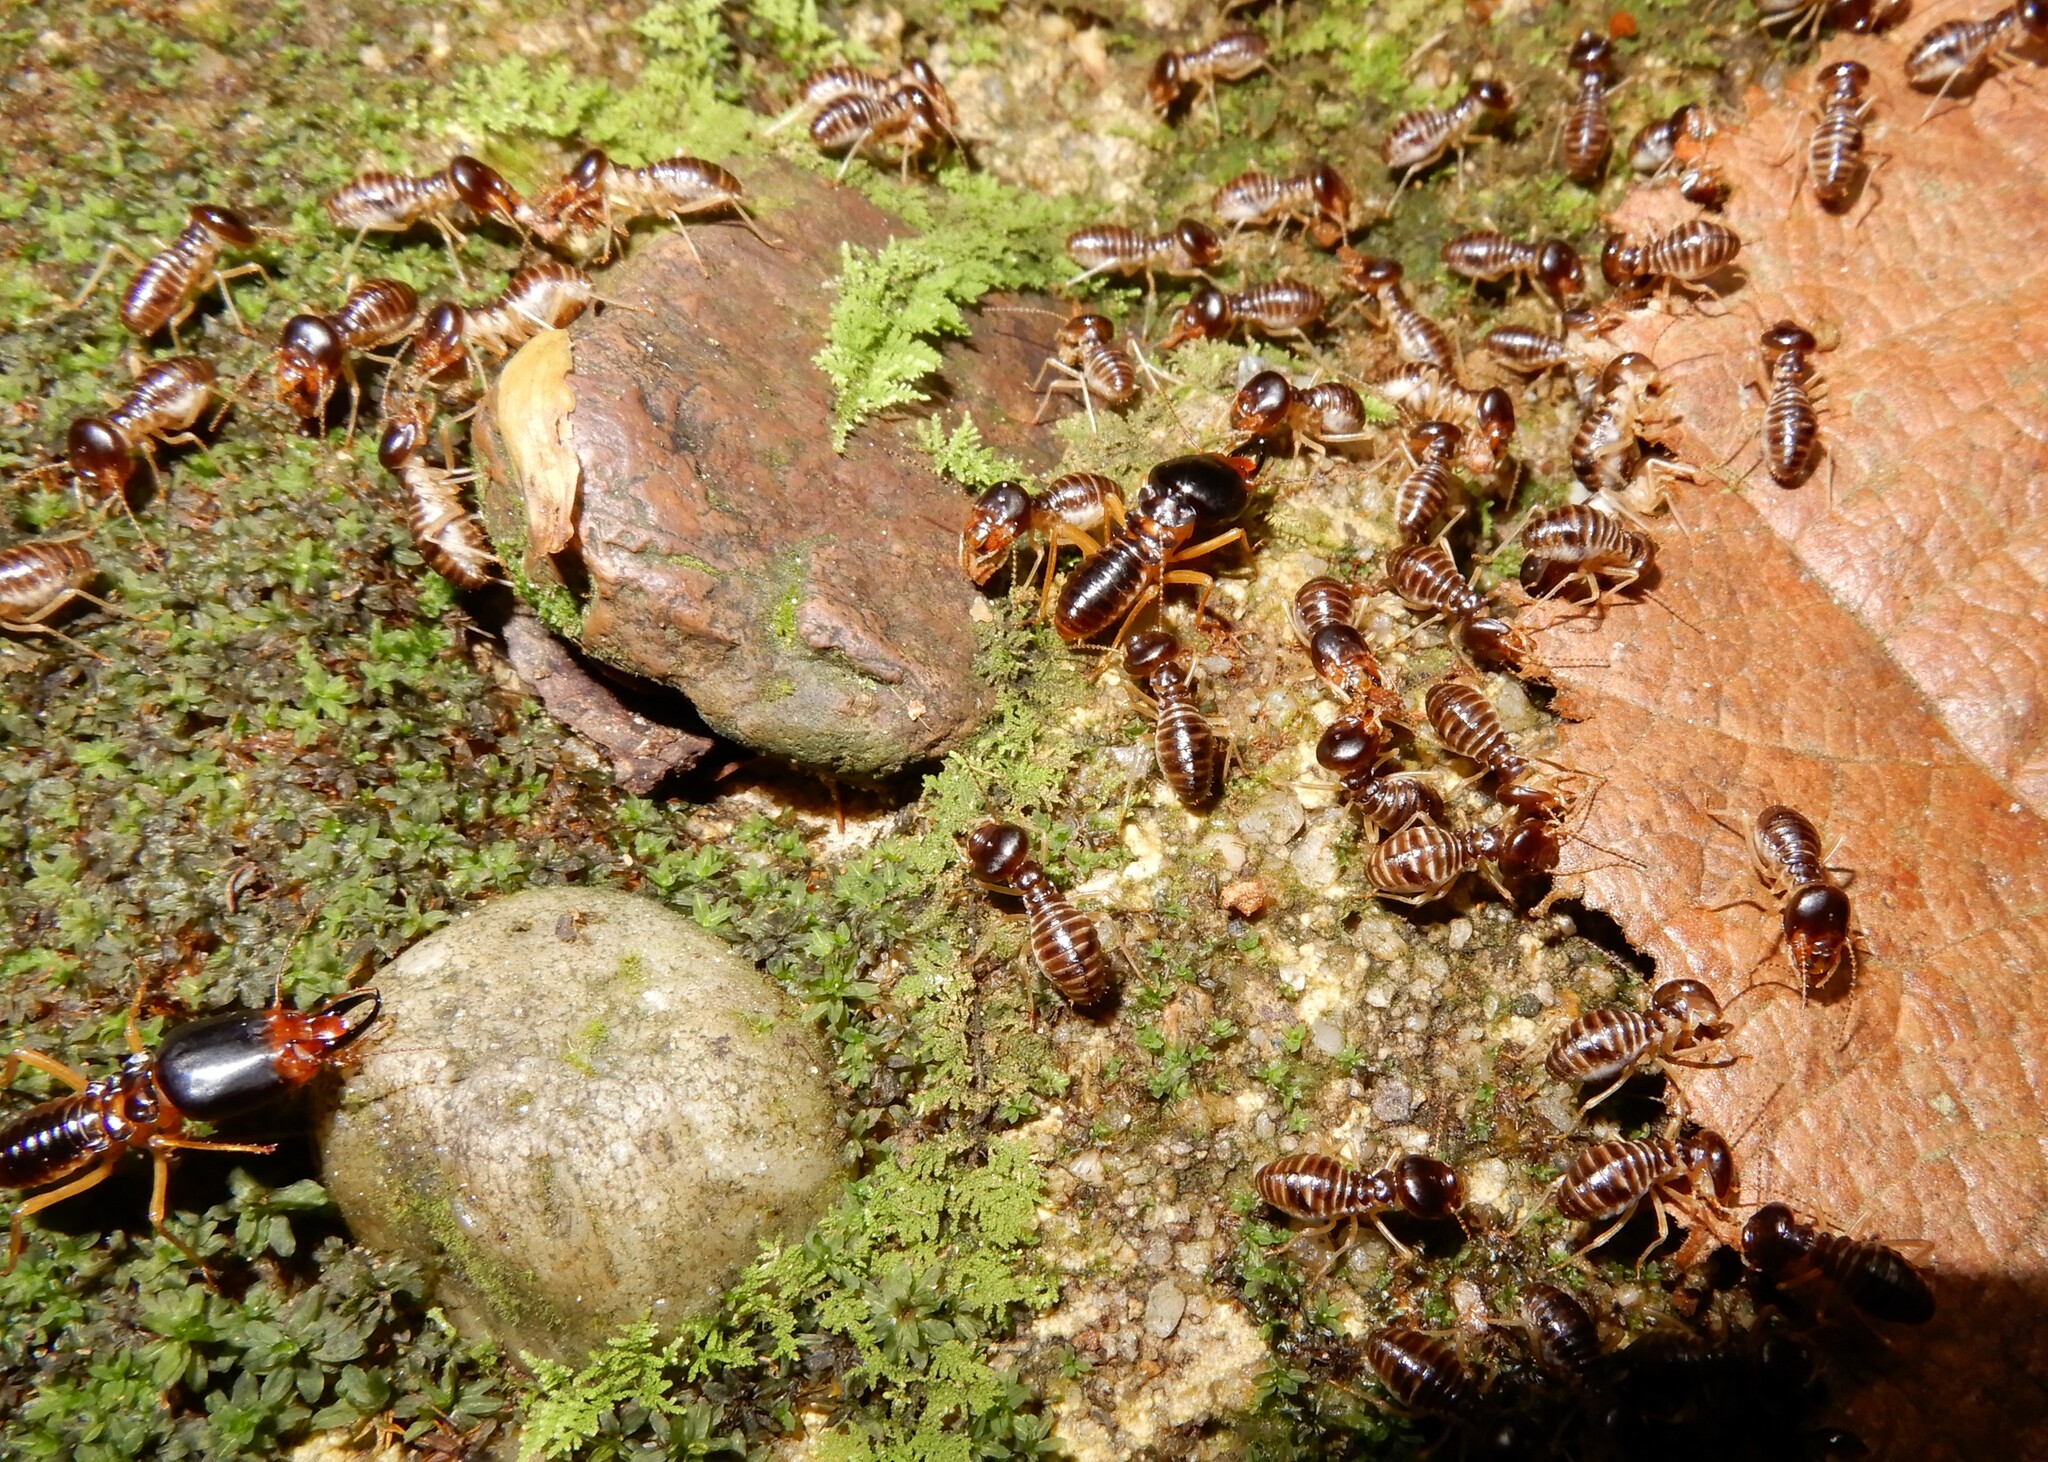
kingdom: Animalia
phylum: Arthropoda
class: Insecta
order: Blattodea
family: Termitidae
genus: Macrotermes
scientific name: Macrotermes carbonarius
